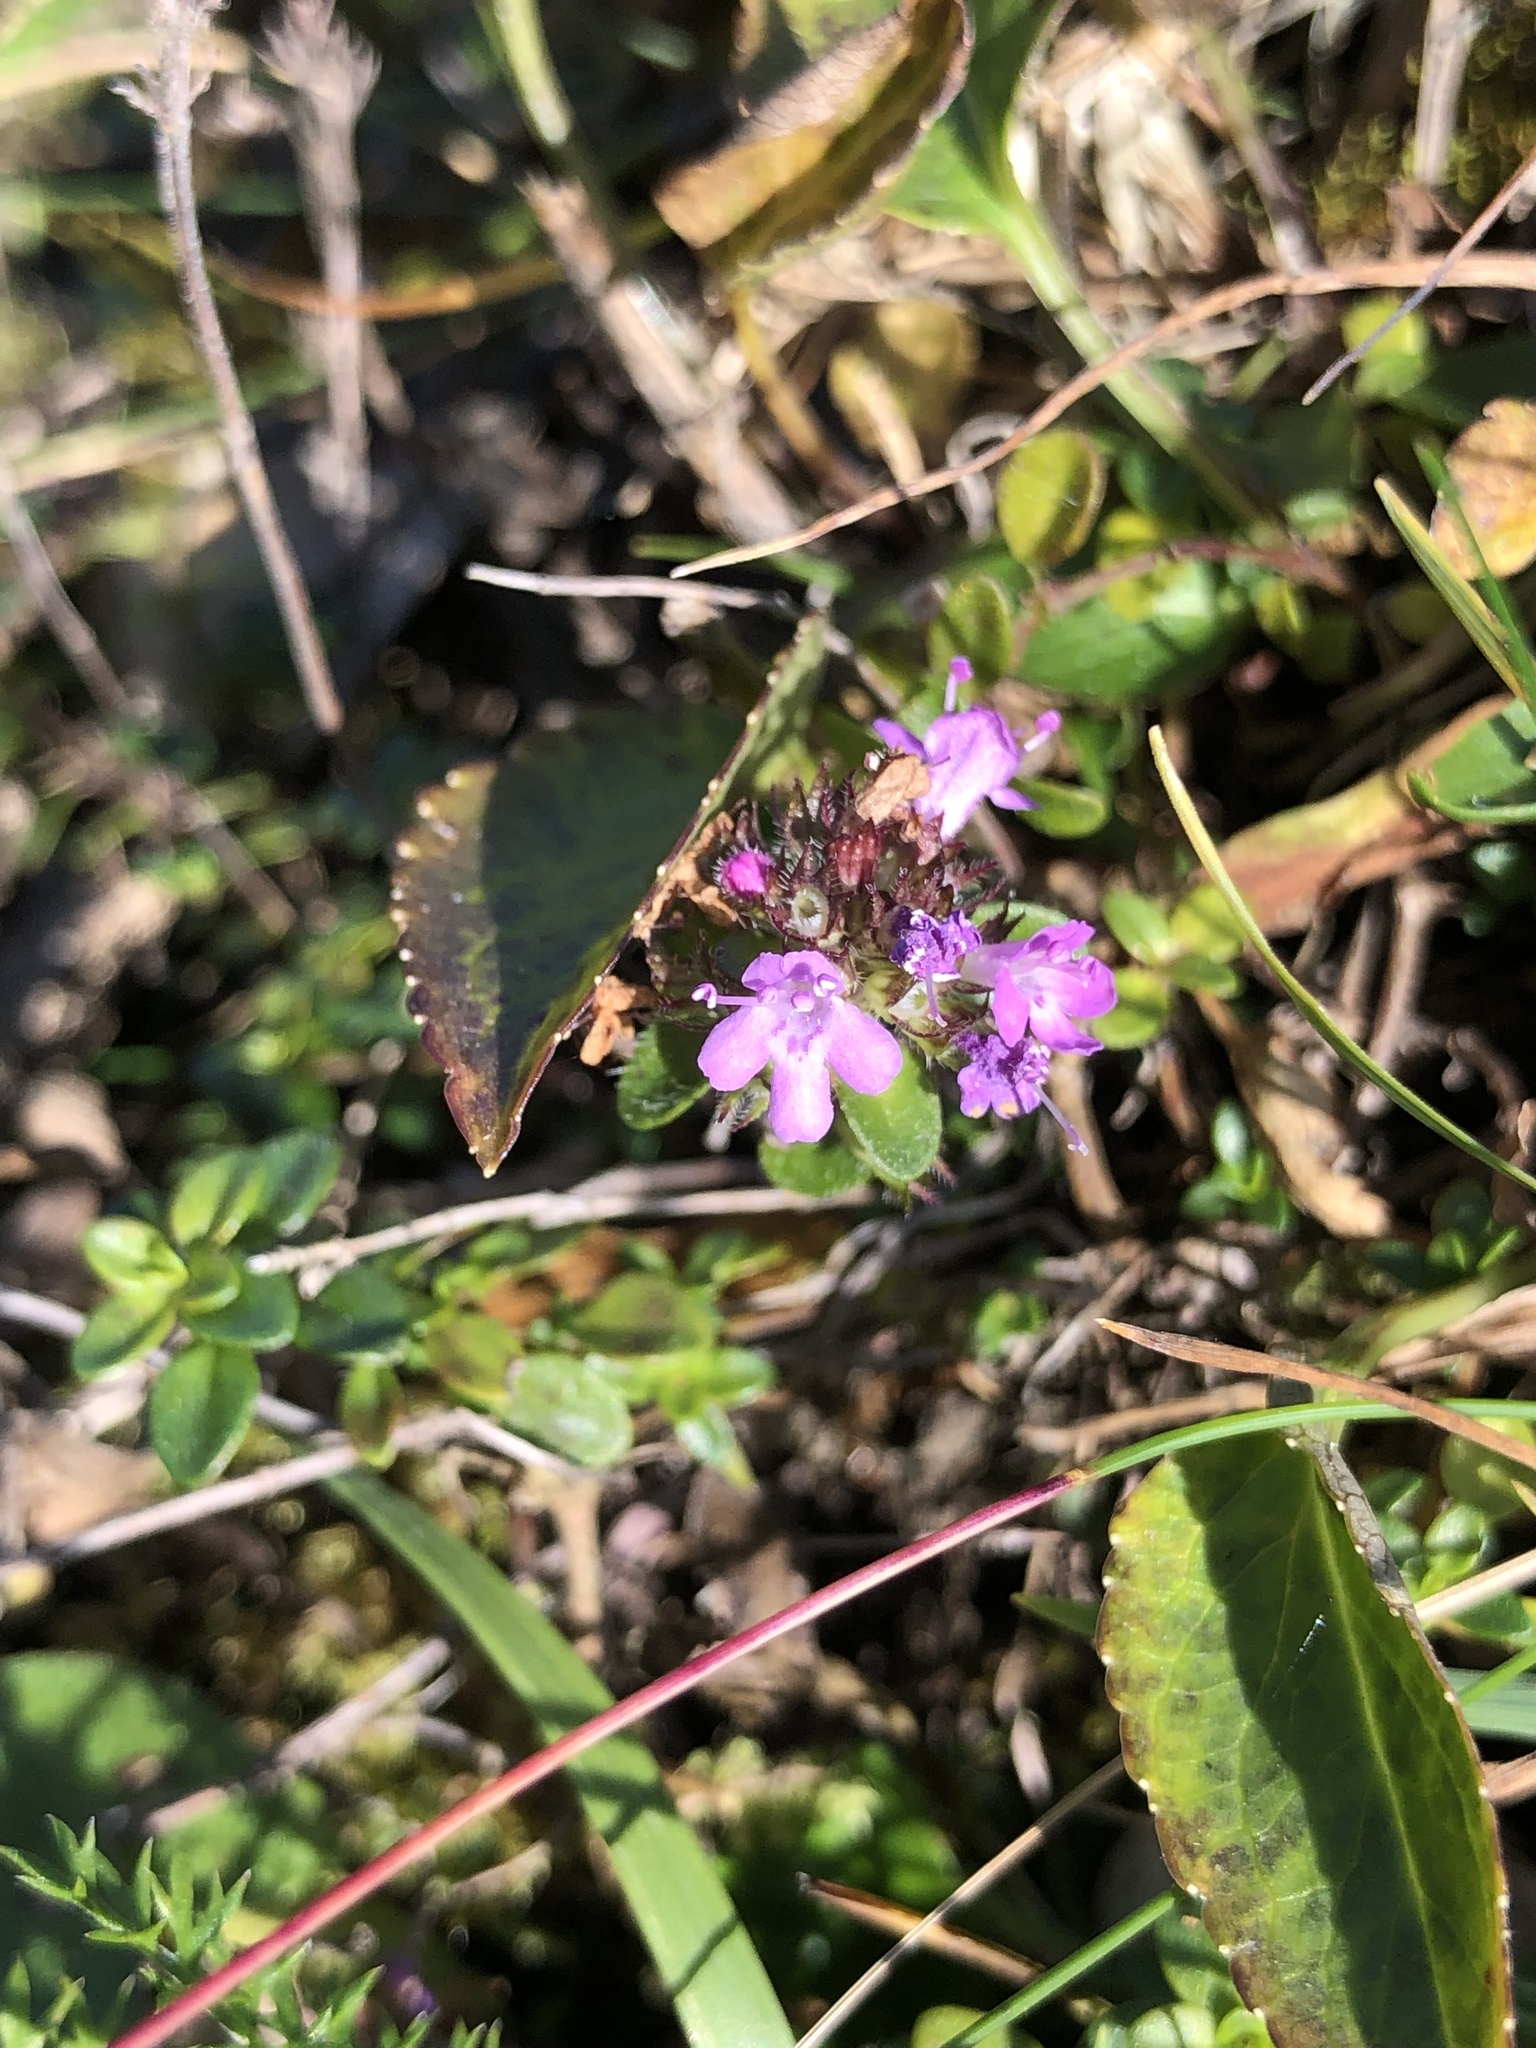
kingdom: Plantae
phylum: Tracheophyta
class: Magnoliopsida
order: Lamiales
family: Lamiaceae
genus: Thymus
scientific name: Thymus pulegioides
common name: Large thyme
